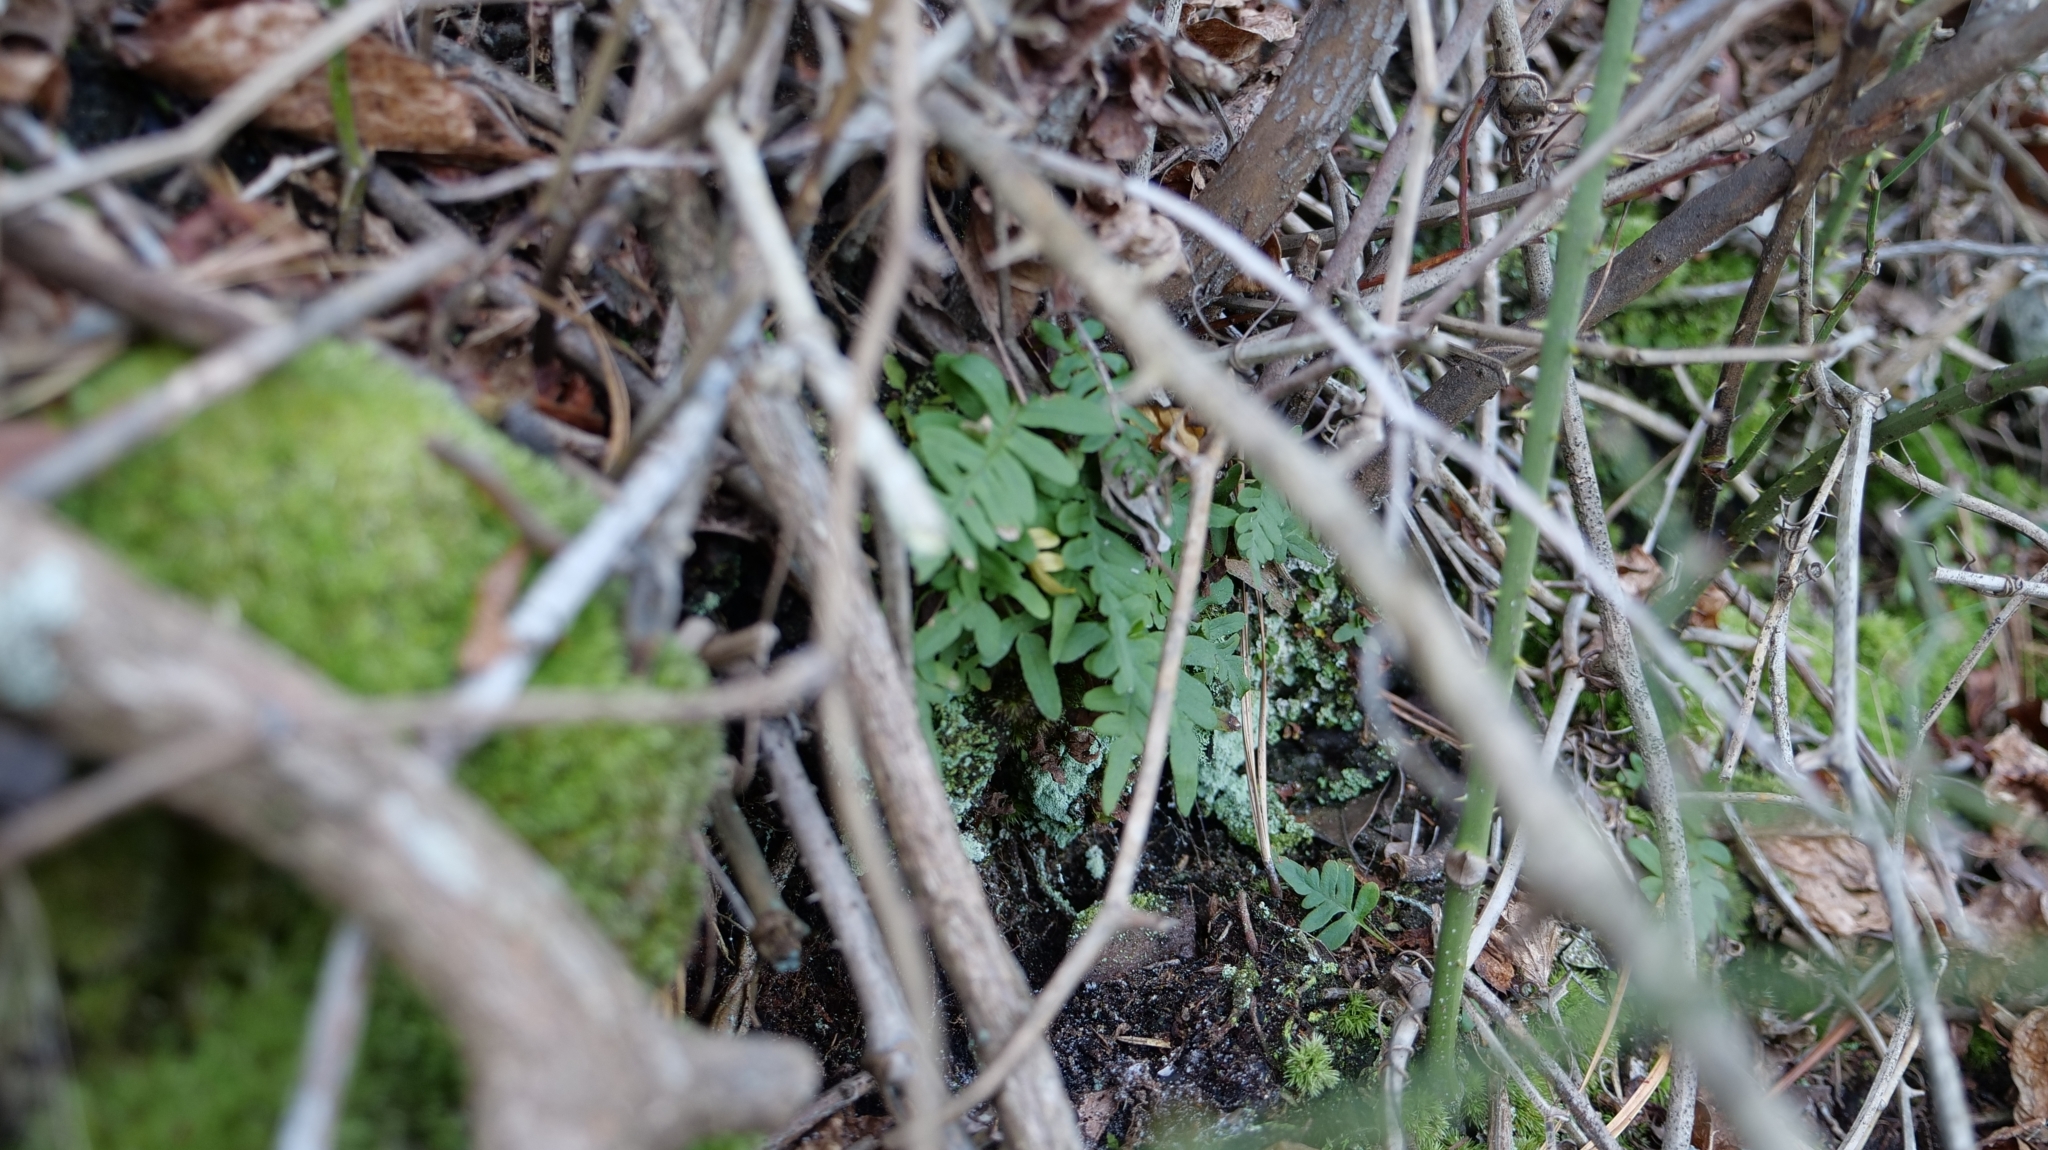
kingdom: Plantae
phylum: Tracheophyta
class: Polypodiopsida
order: Polypodiales
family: Polypodiaceae
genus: Pleopeltis
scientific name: Pleopeltis michauxiana
